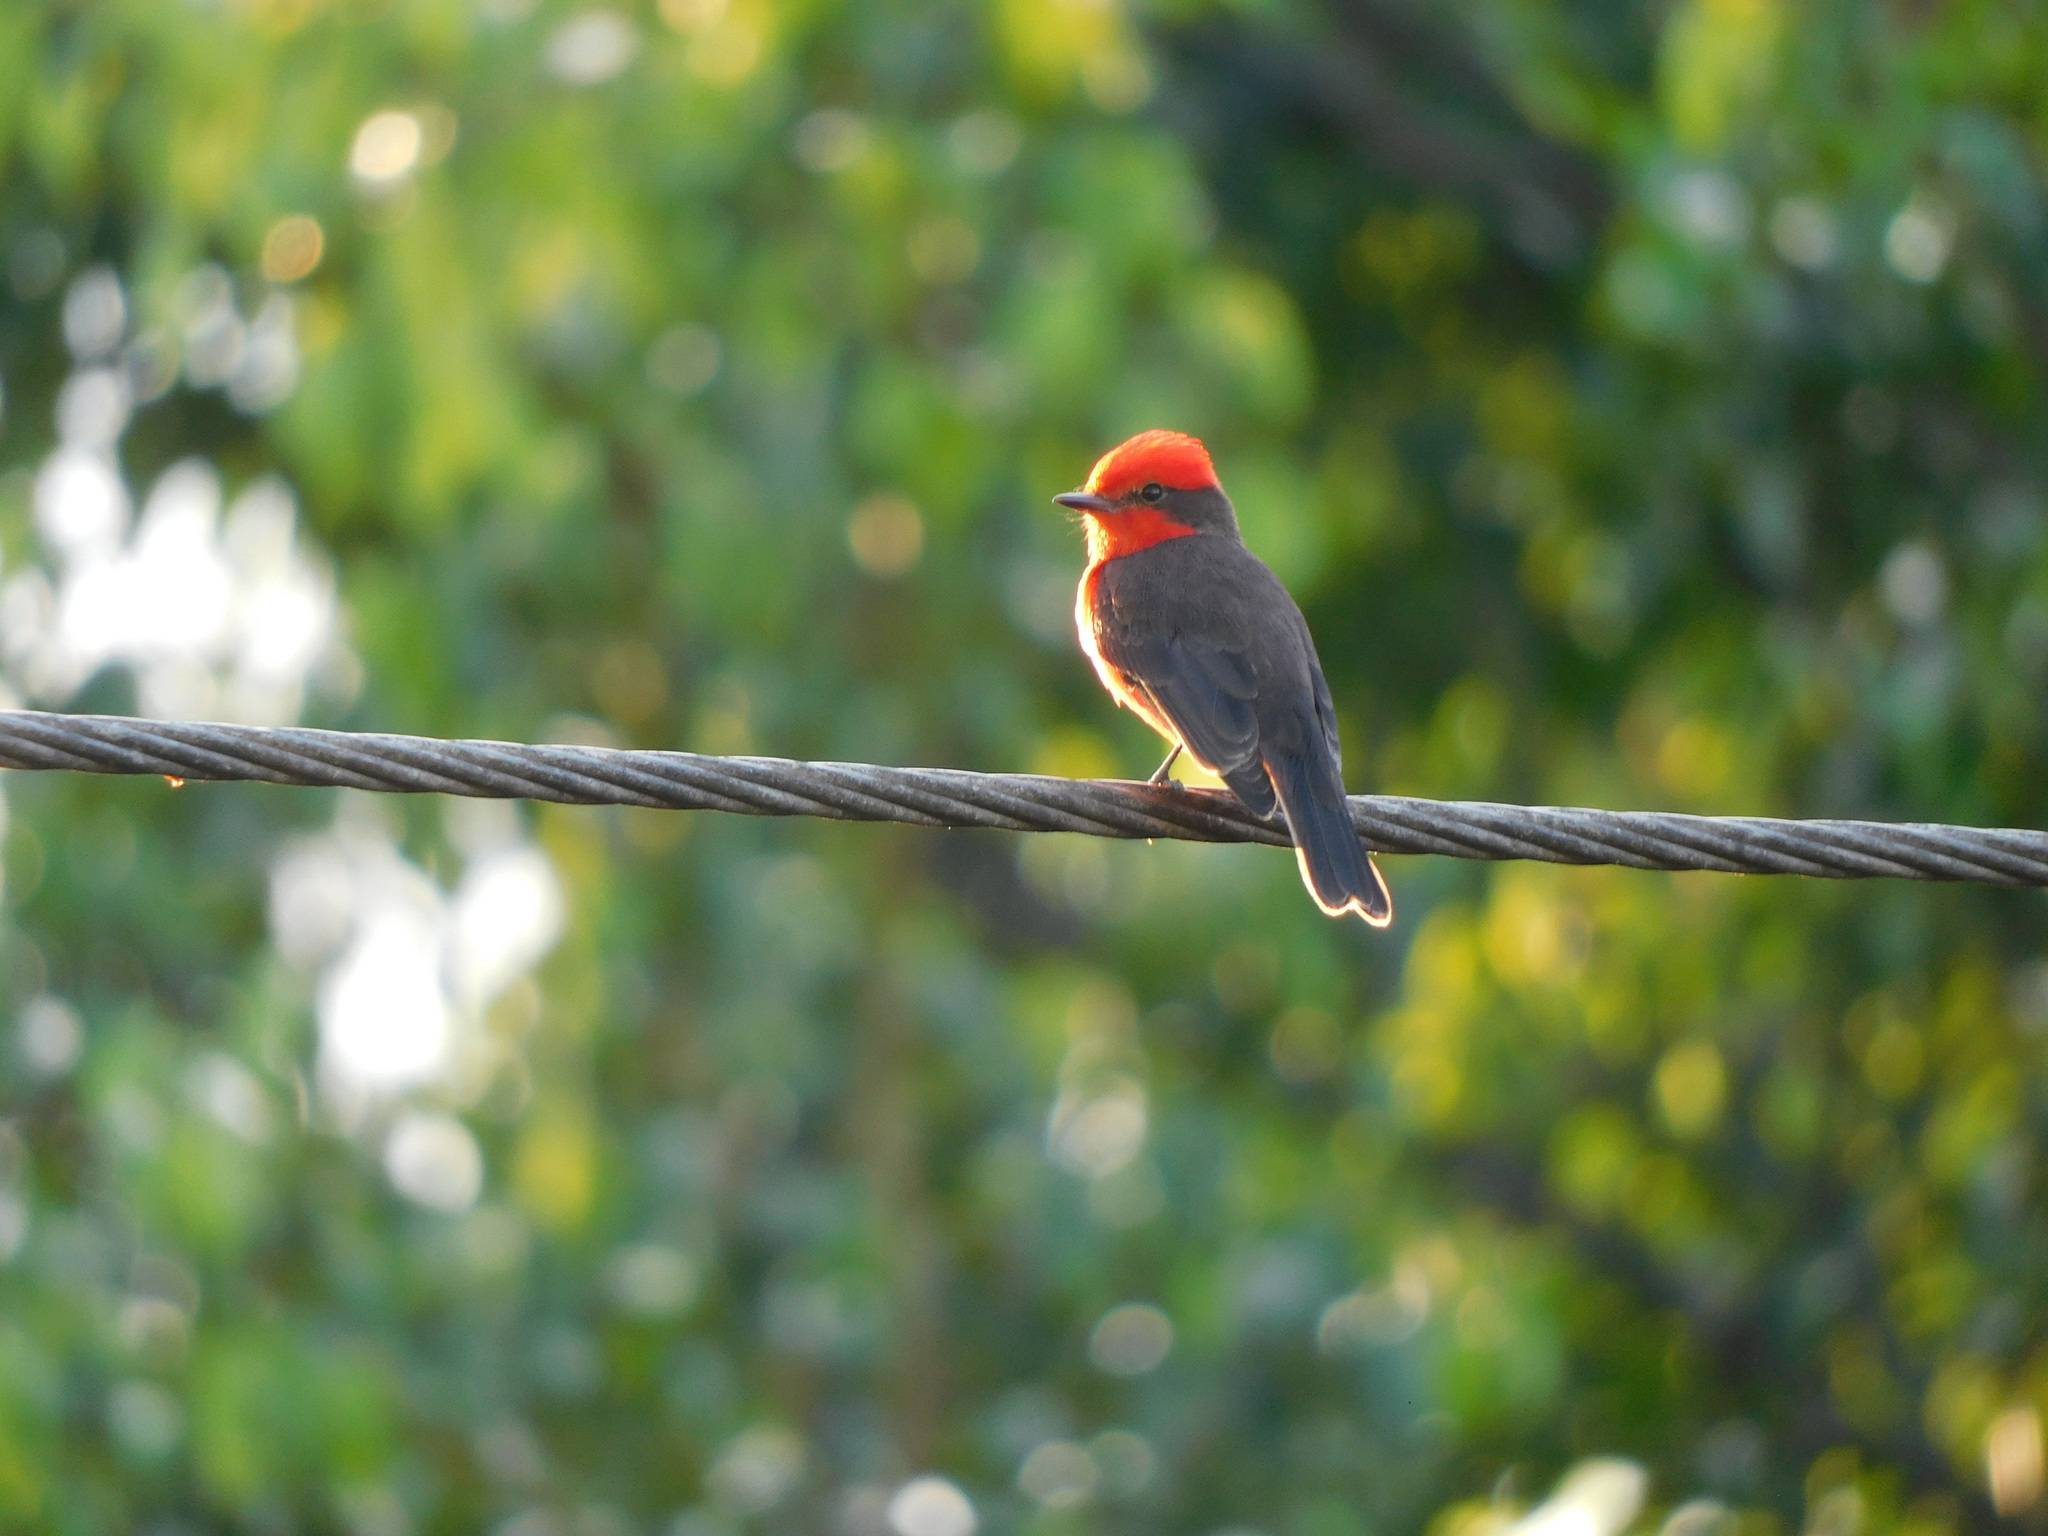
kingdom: Animalia
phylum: Chordata
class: Aves
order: Passeriformes
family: Tyrannidae
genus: Pyrocephalus
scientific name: Pyrocephalus rubinus
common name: Vermilion flycatcher
